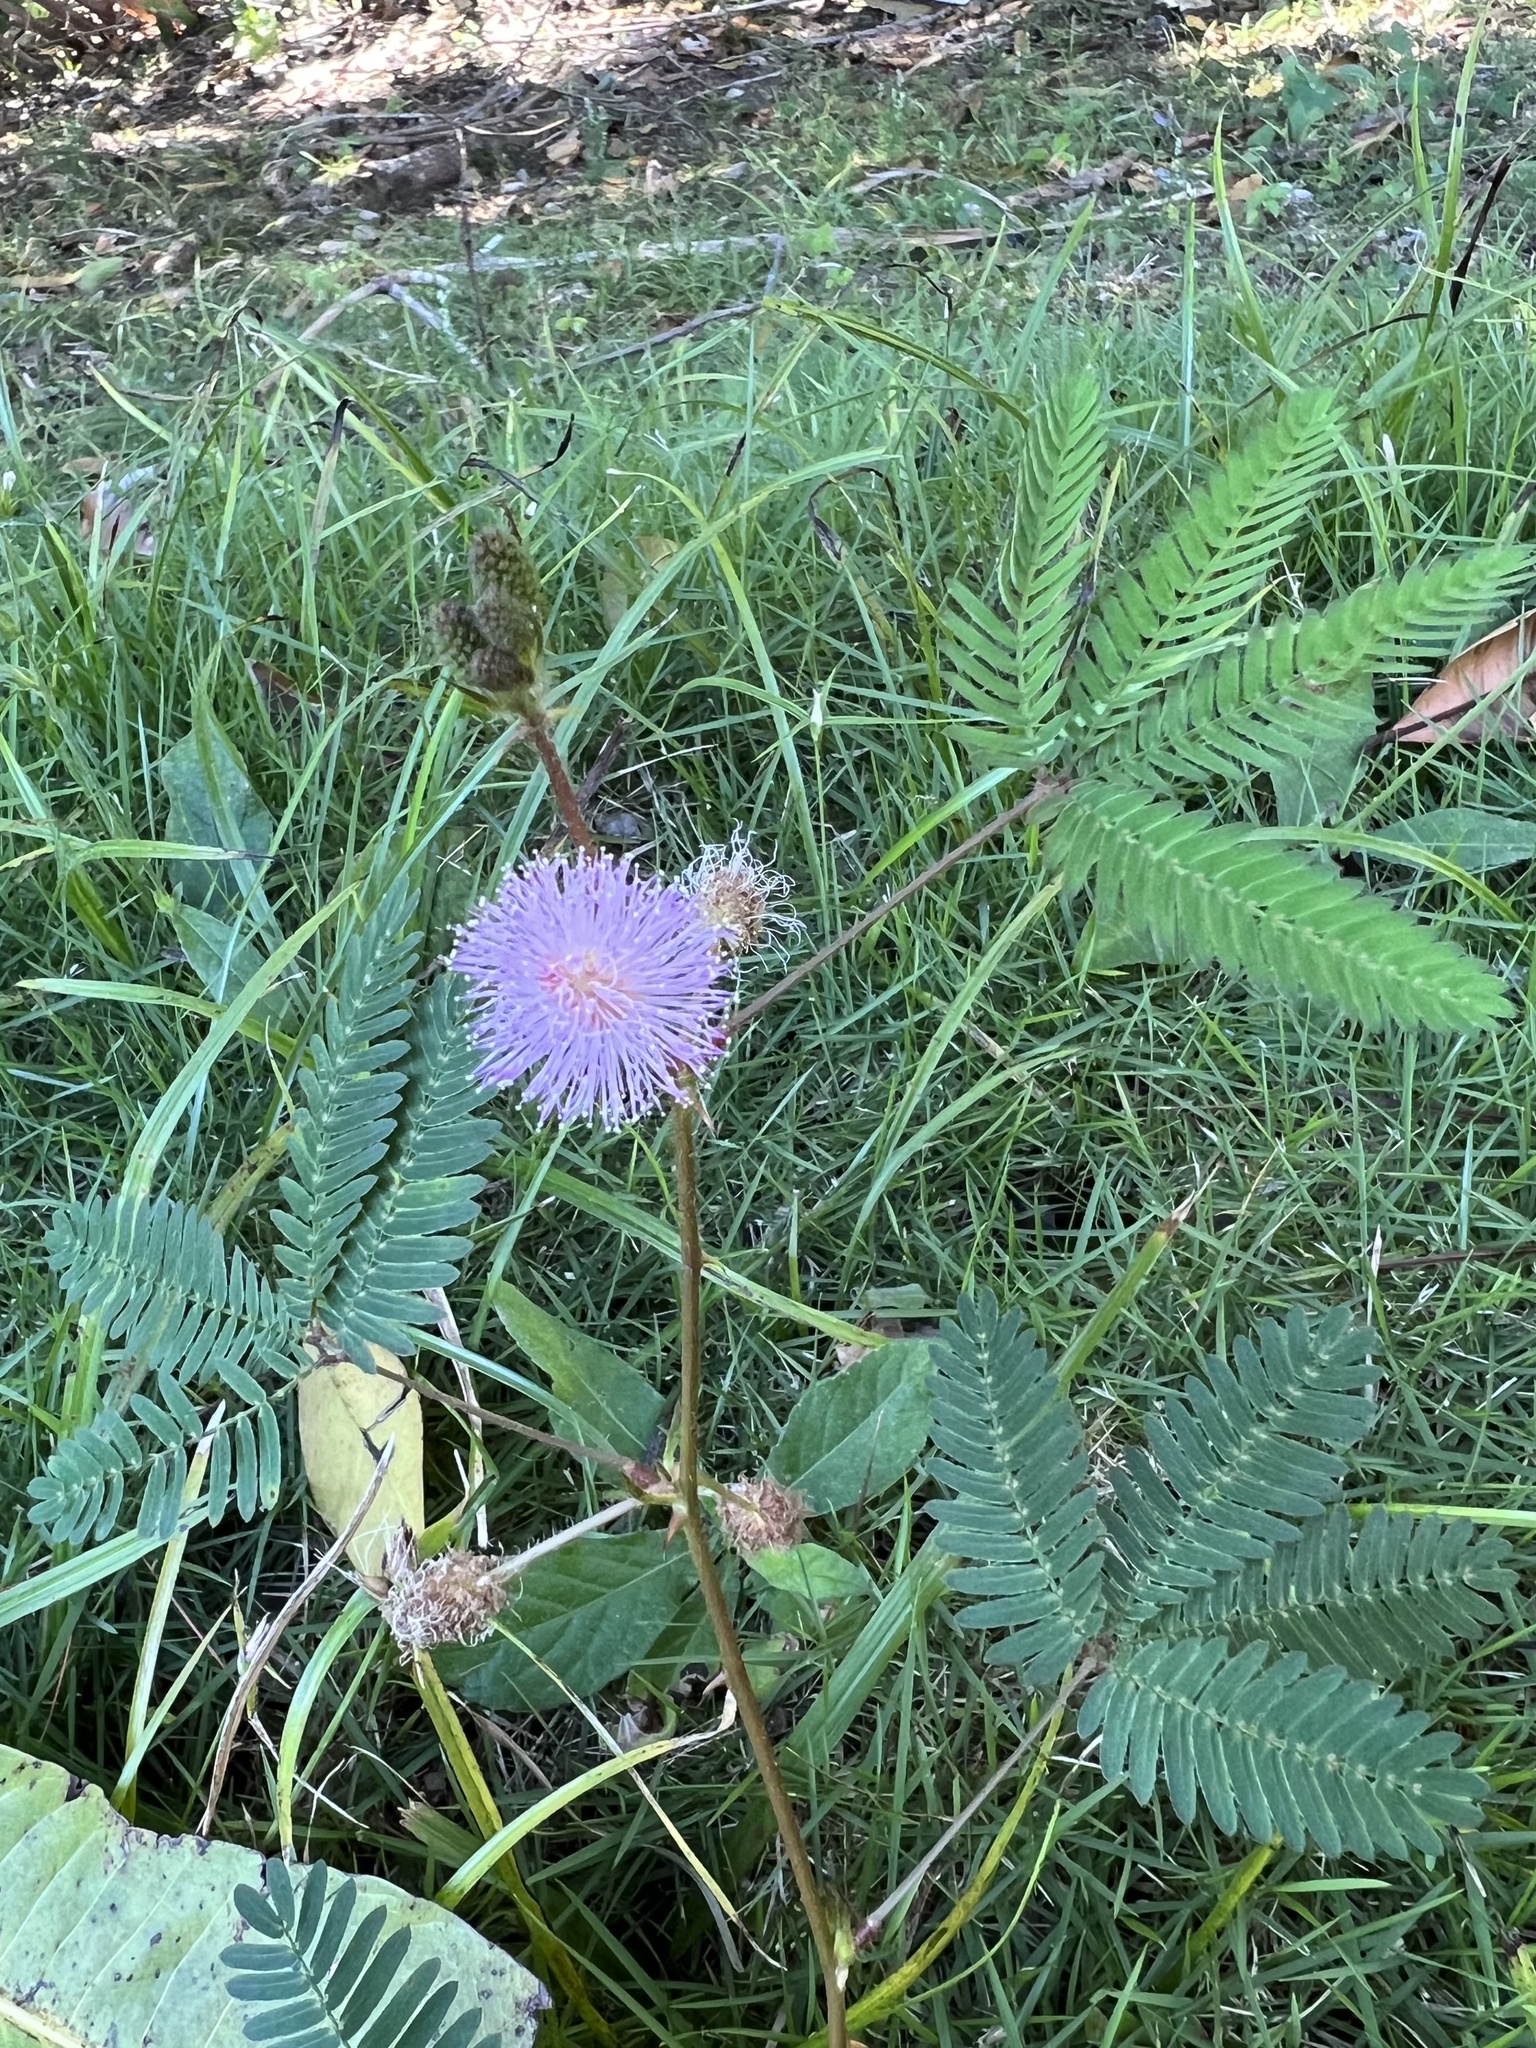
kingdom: Plantae
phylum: Tracheophyta
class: Magnoliopsida
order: Fabales
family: Fabaceae
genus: Mimosa
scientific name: Mimosa pudica
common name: Sensitive plant
